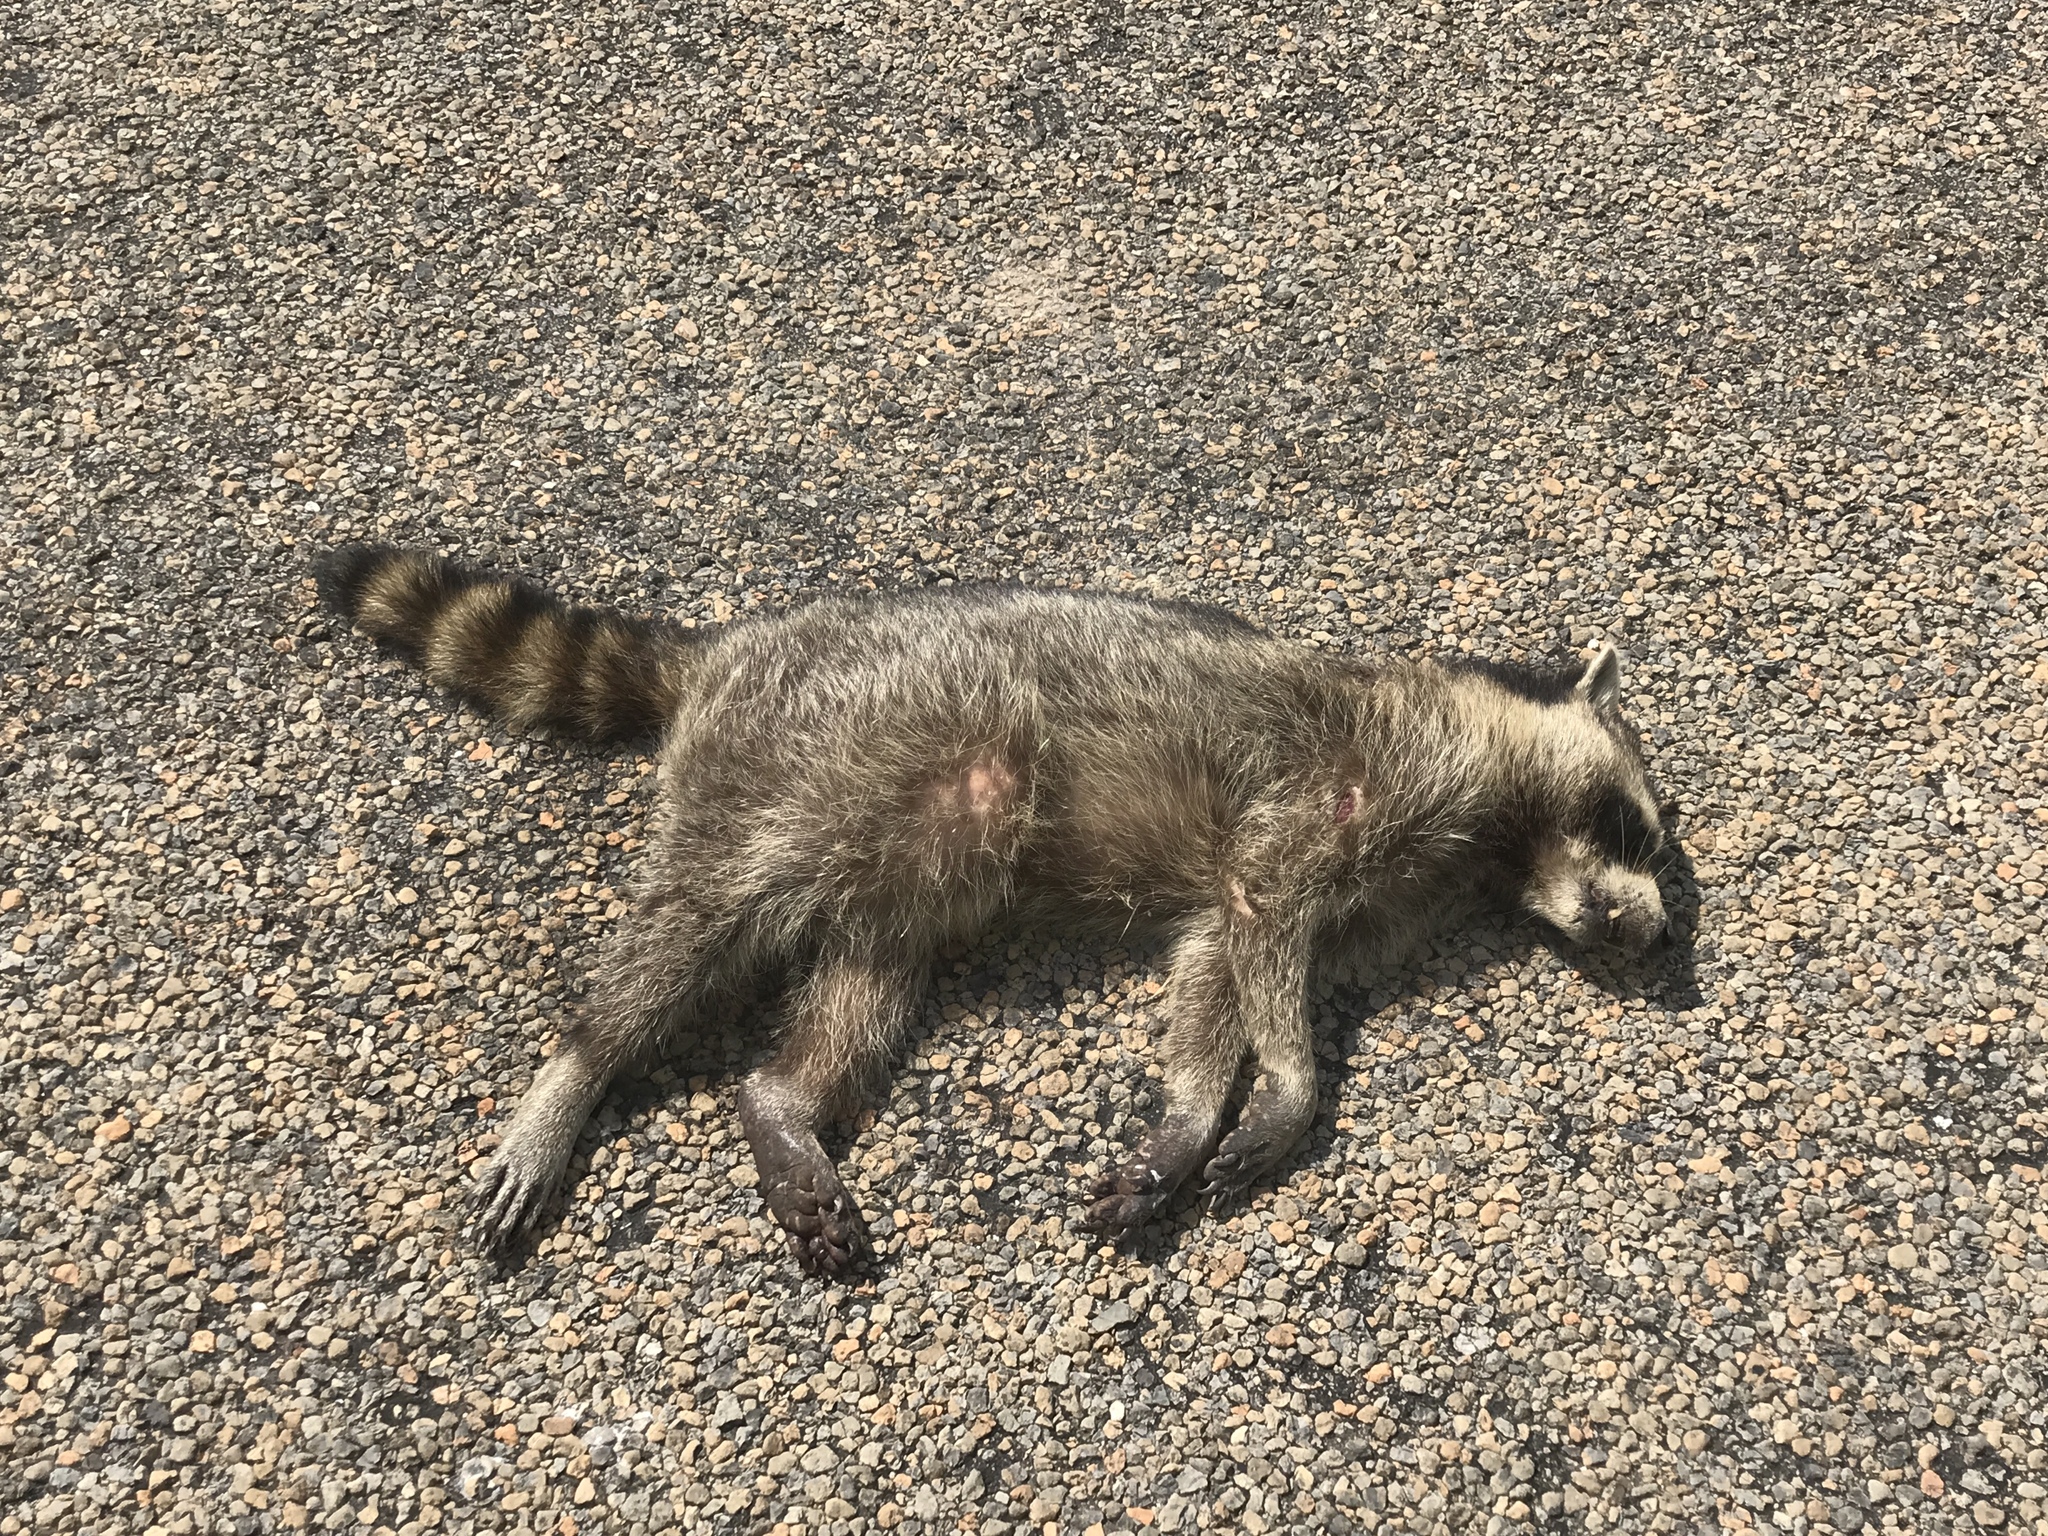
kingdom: Animalia
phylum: Chordata
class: Mammalia
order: Carnivora
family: Procyonidae
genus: Procyon
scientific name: Procyon lotor
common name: Raccoon
